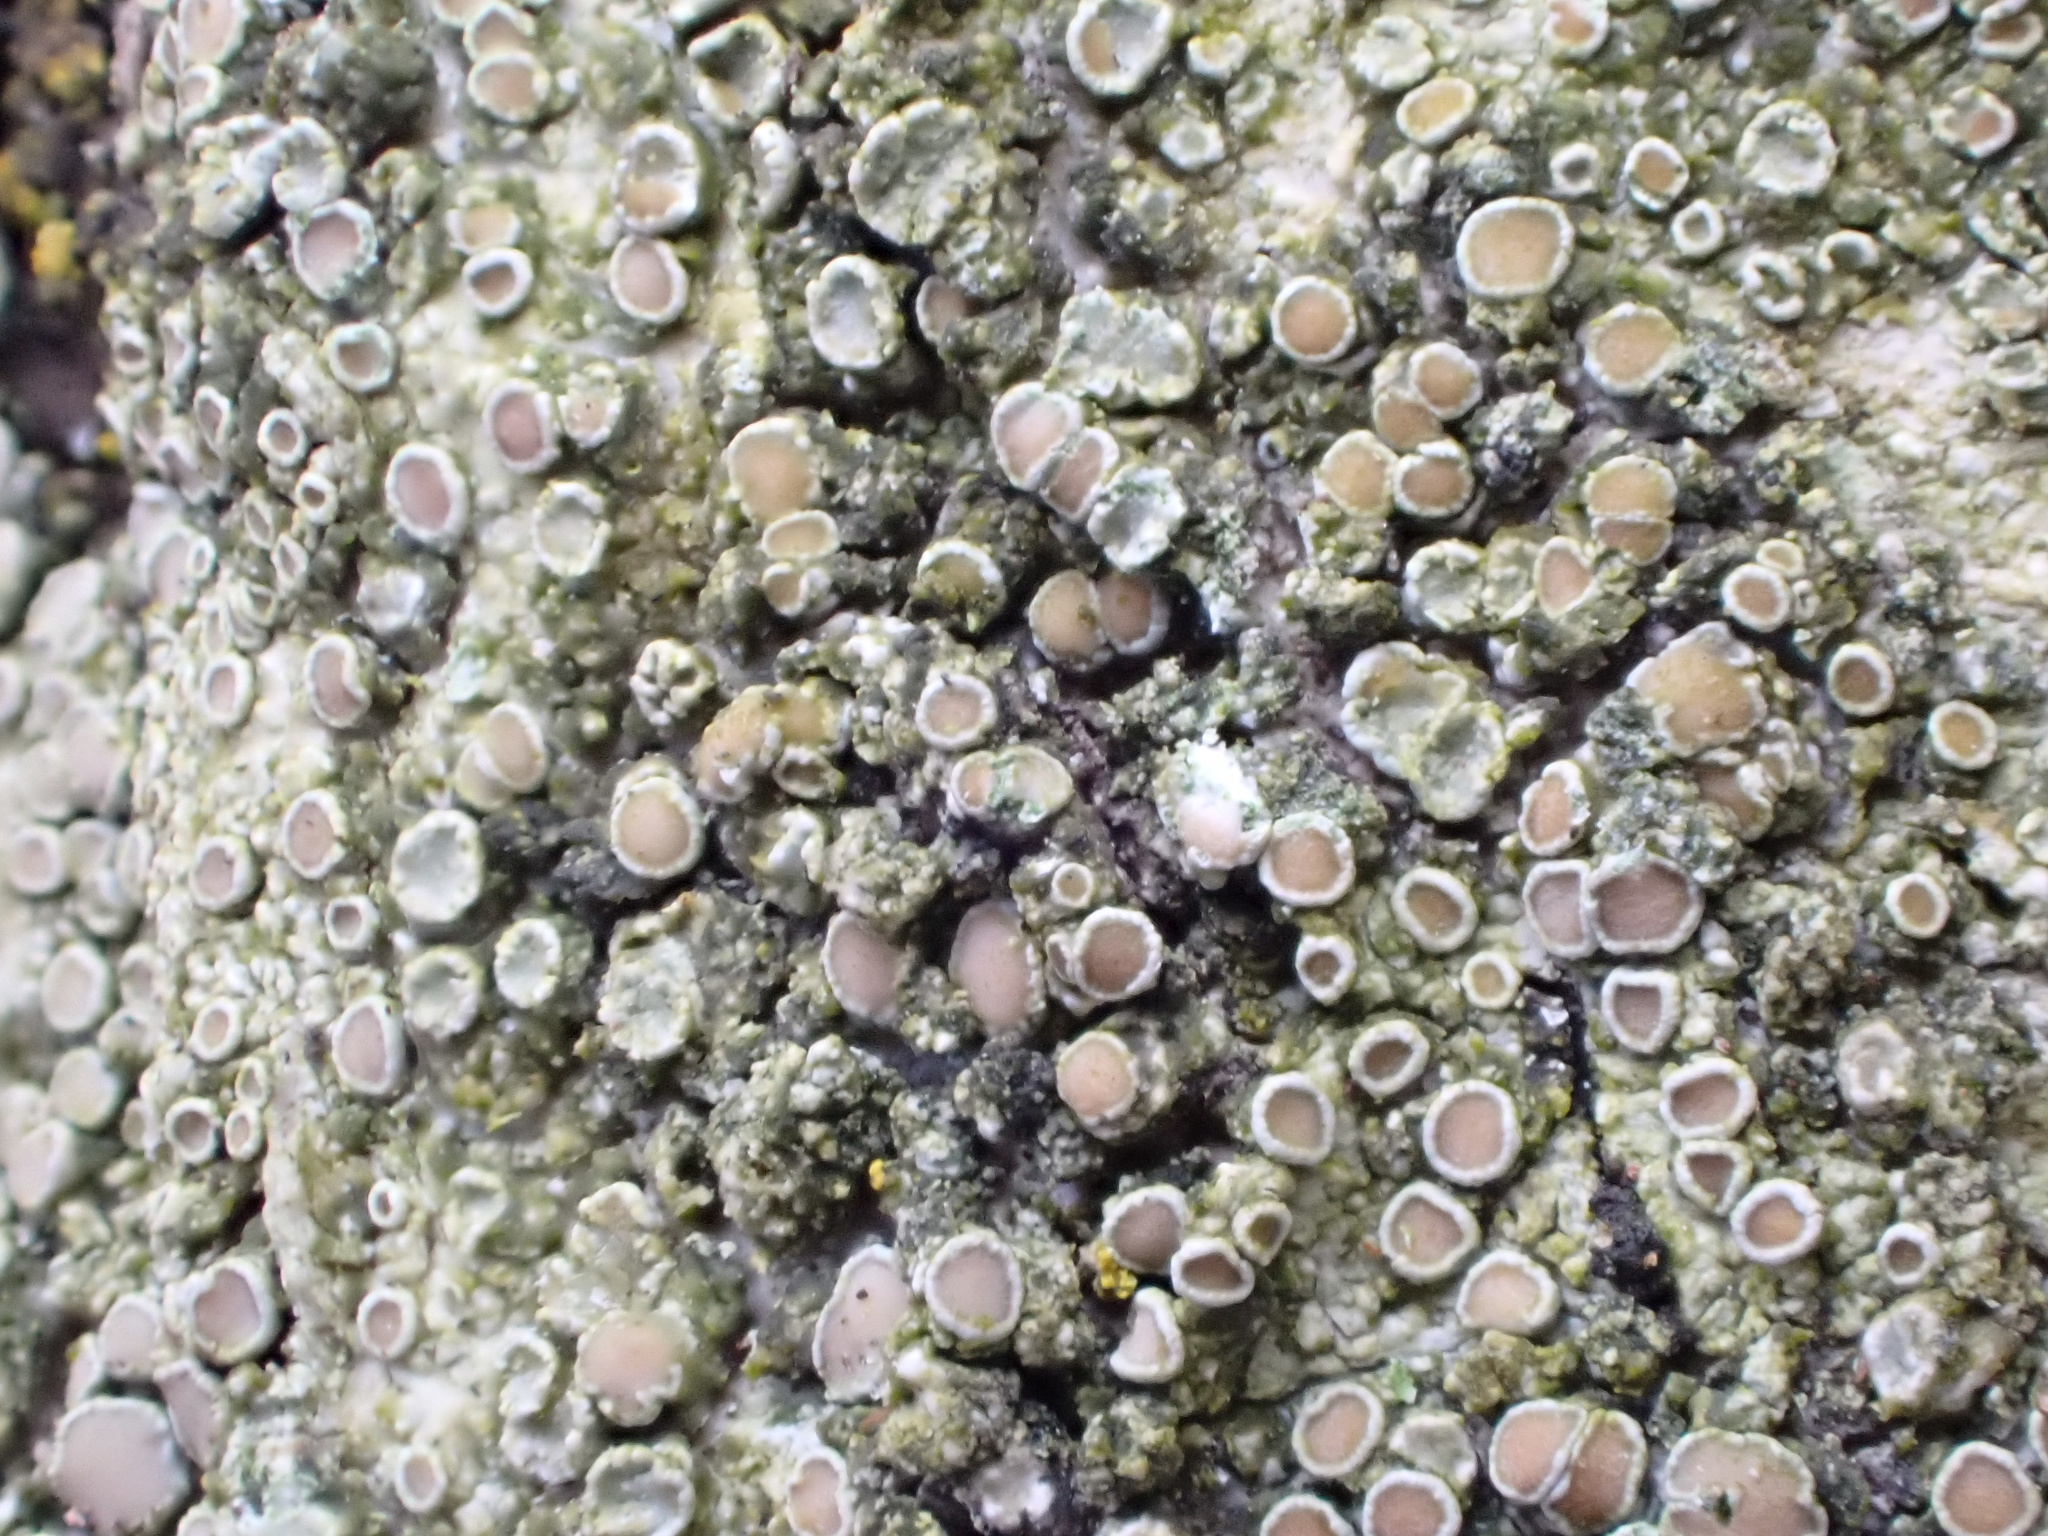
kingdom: Fungi
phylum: Ascomycota
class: Lecanoromycetes
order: Lecanorales
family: Lecanoraceae
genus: Lecanora
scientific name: Lecanora chlarotera
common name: Brown rim-lichen
